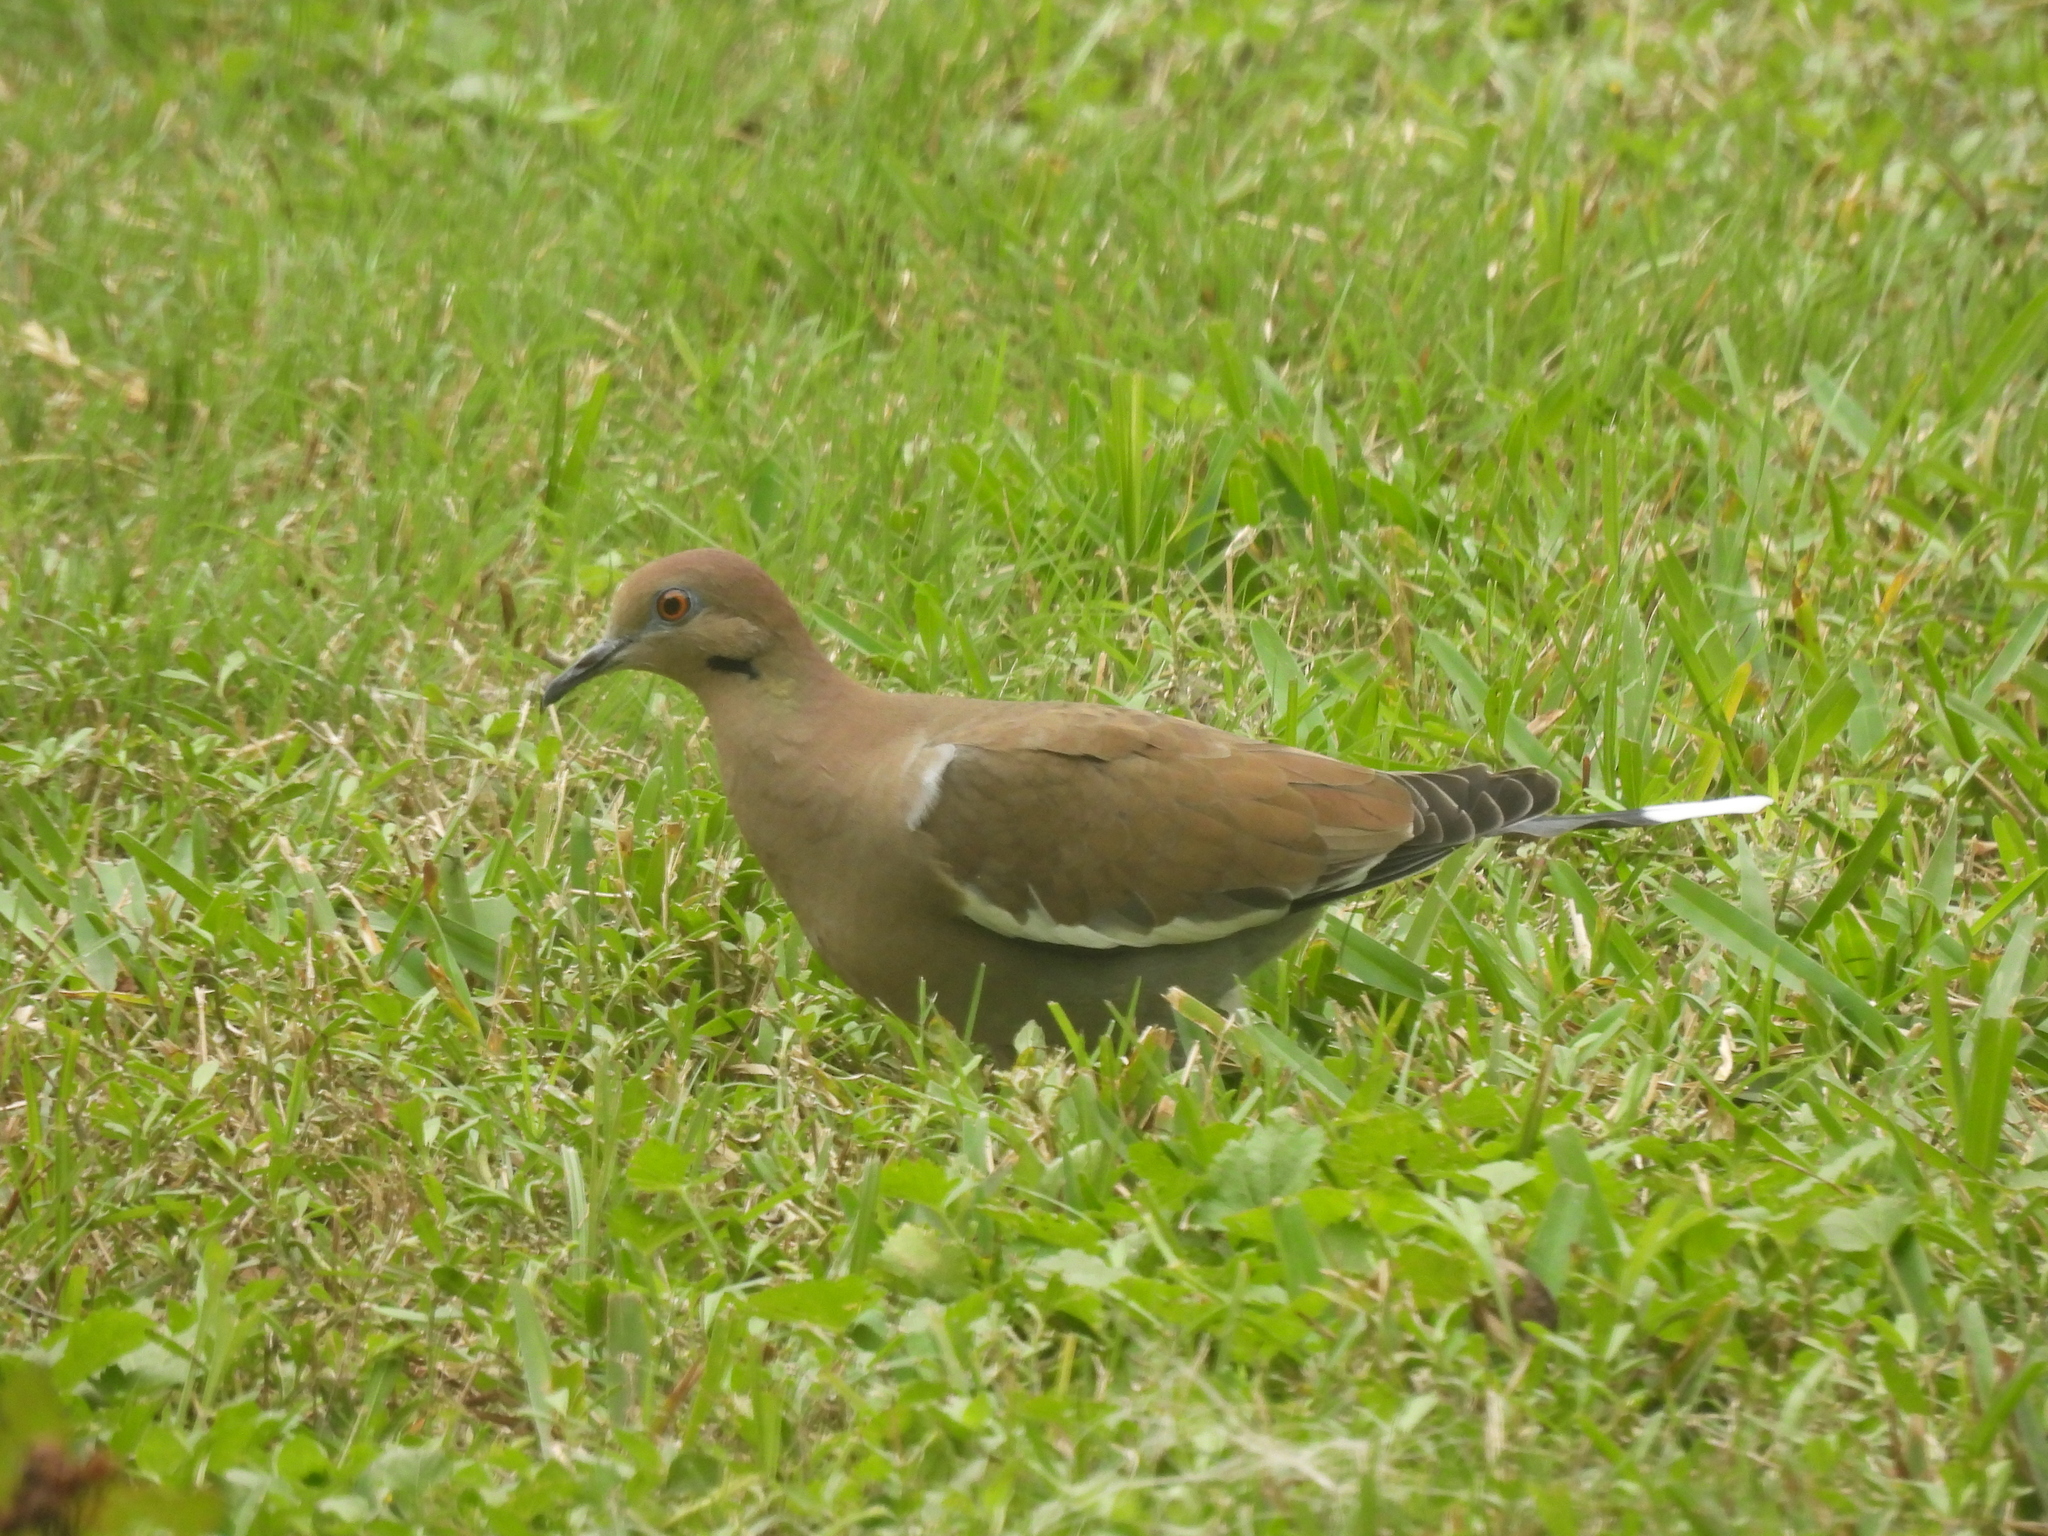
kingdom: Animalia
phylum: Chordata
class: Aves
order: Columbiformes
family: Columbidae
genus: Zenaida
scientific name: Zenaida asiatica
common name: White-winged dove
